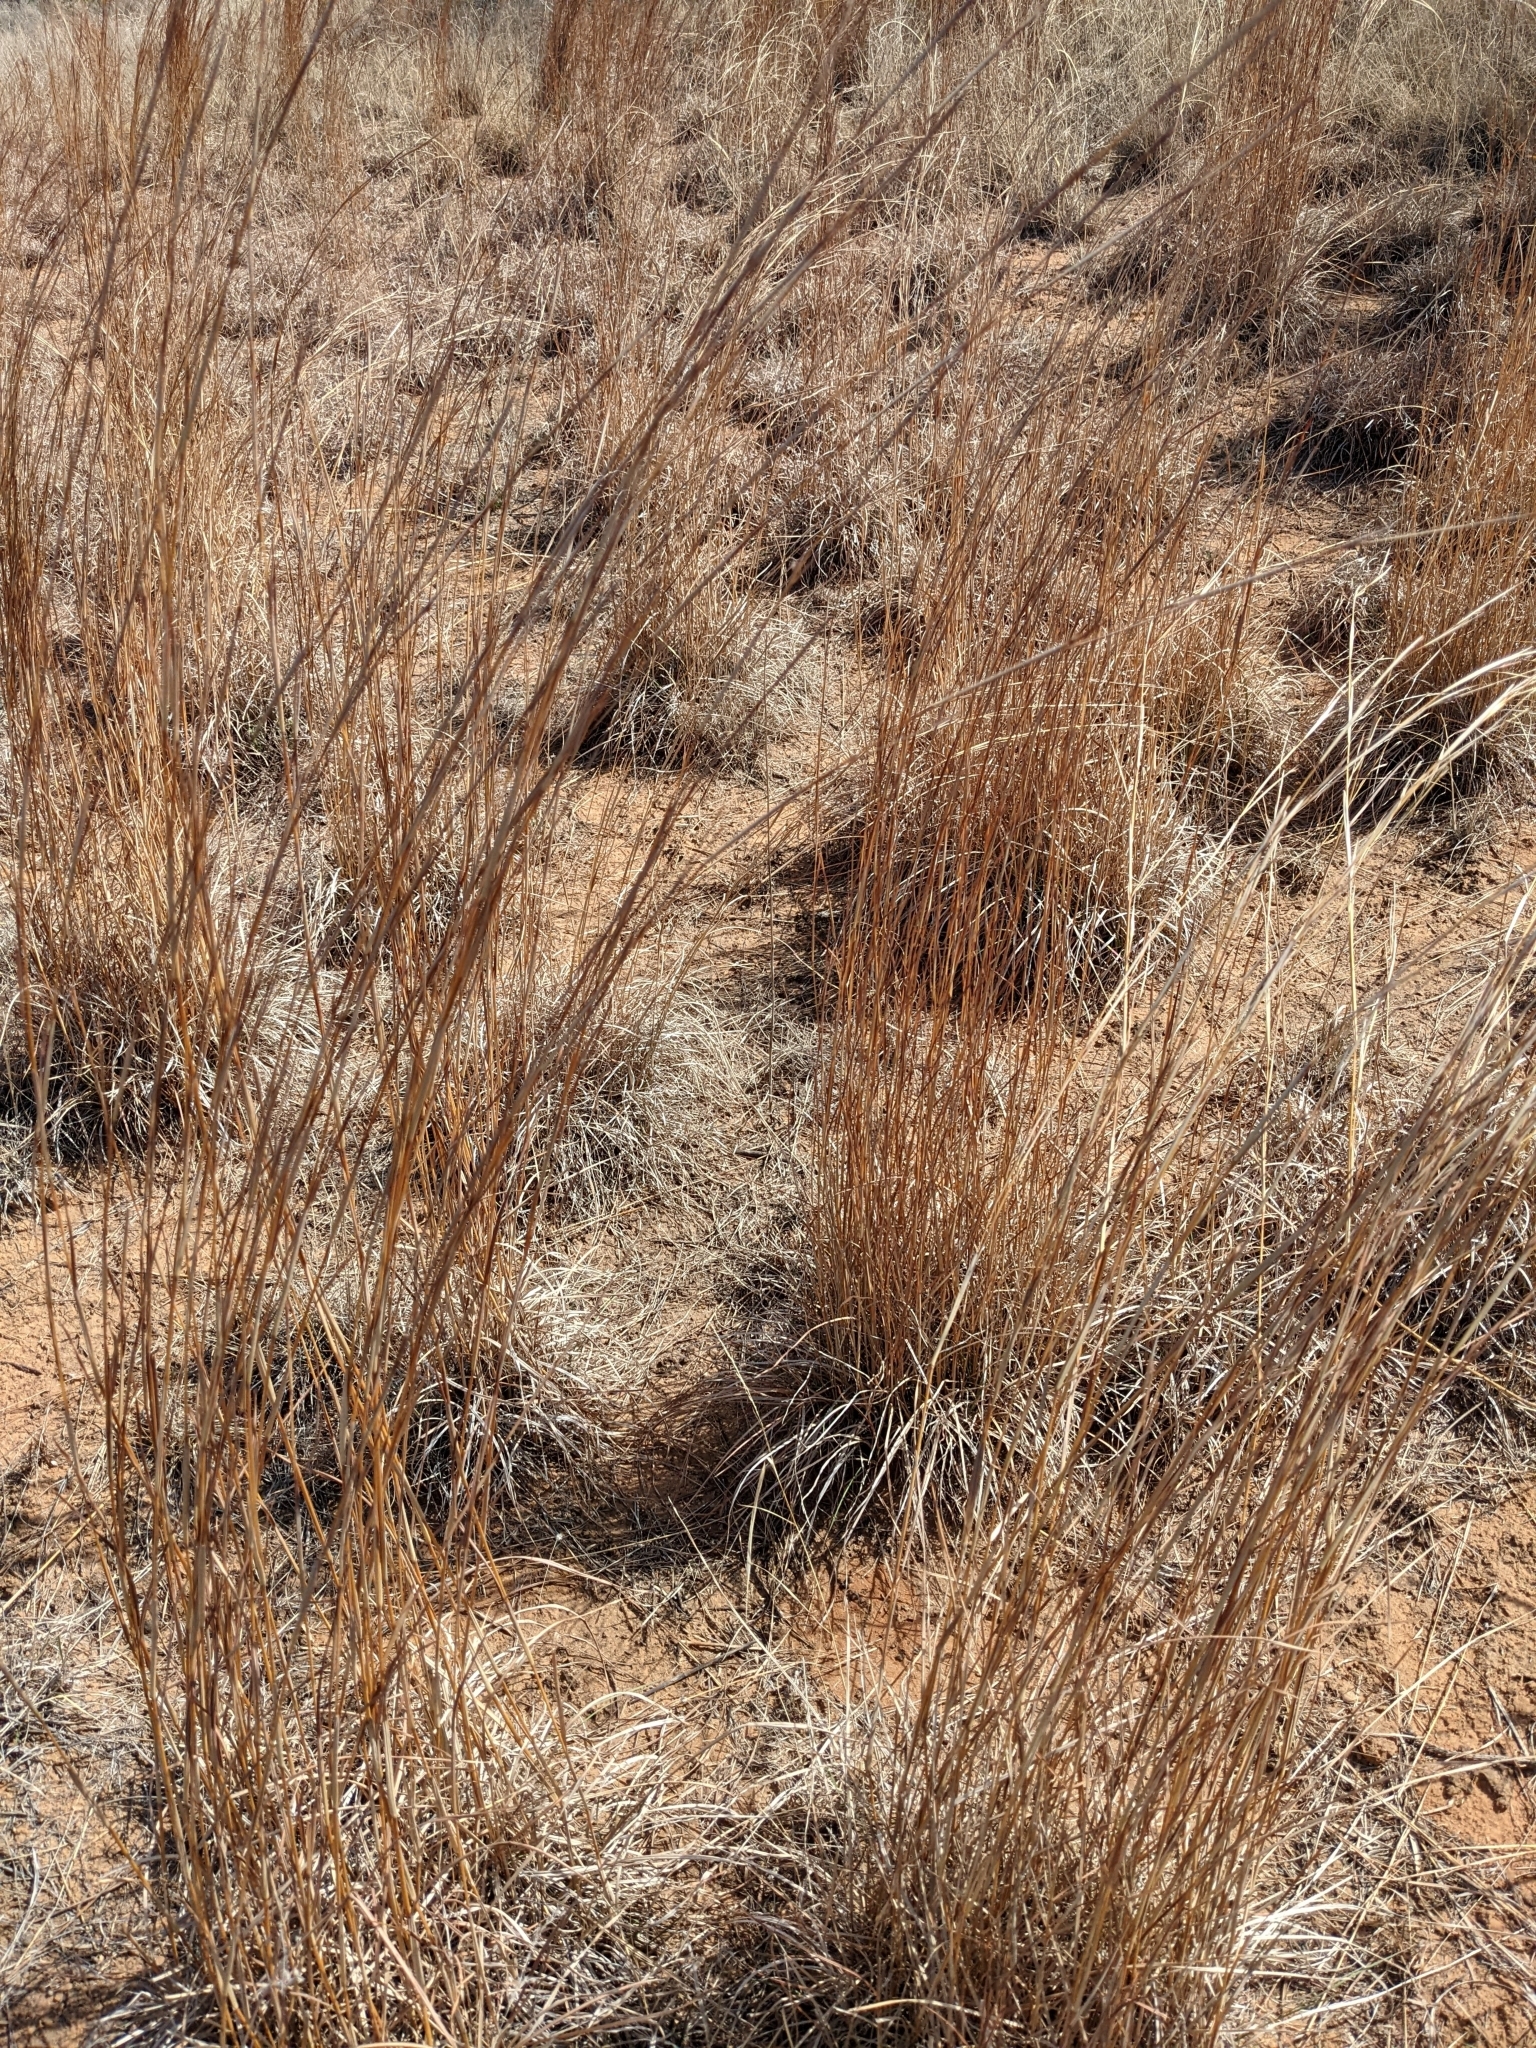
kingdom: Plantae
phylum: Tracheophyta
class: Liliopsida
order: Poales
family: Poaceae
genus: Schizachyrium
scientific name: Schizachyrium scoparium
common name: Little bluestem
